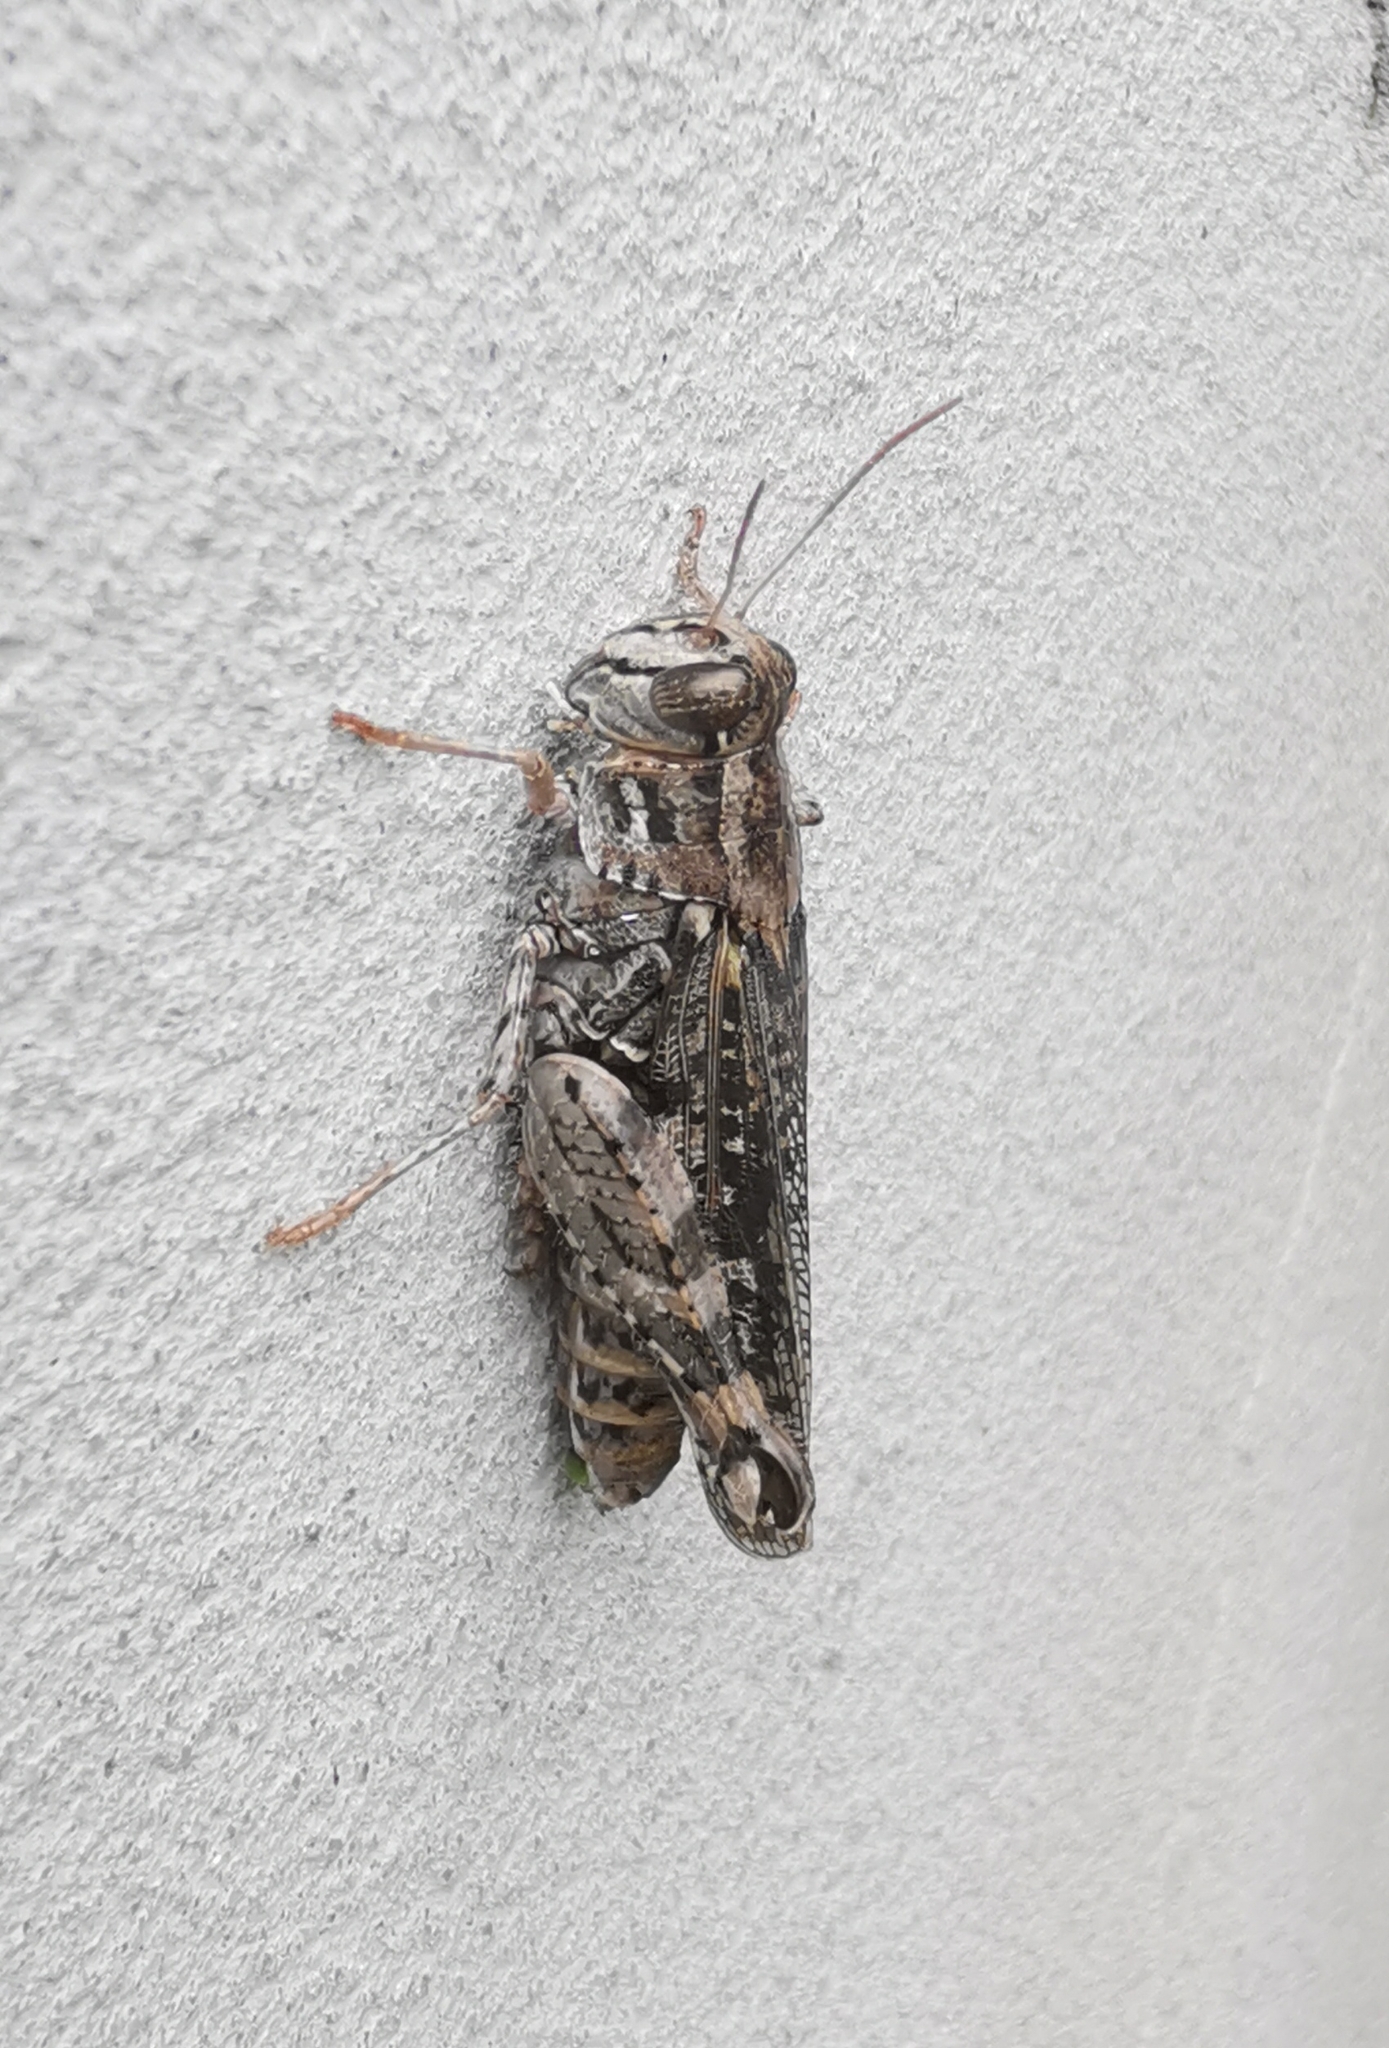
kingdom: Animalia
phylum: Arthropoda
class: Insecta
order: Orthoptera
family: Acrididae
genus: Calliptamus
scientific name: Calliptamus italicus
